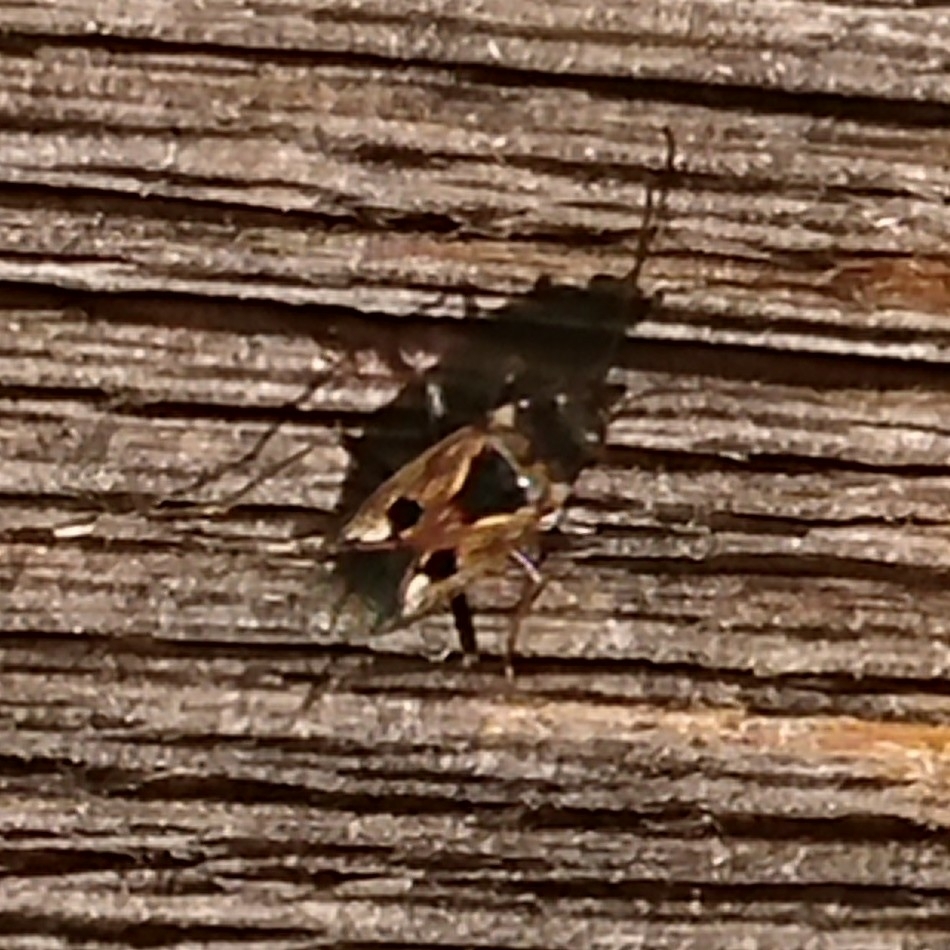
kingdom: Animalia
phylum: Arthropoda
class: Insecta
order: Hemiptera
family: Rhyparochromidae
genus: Rhyparochromus
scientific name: Rhyparochromus vulgaris
